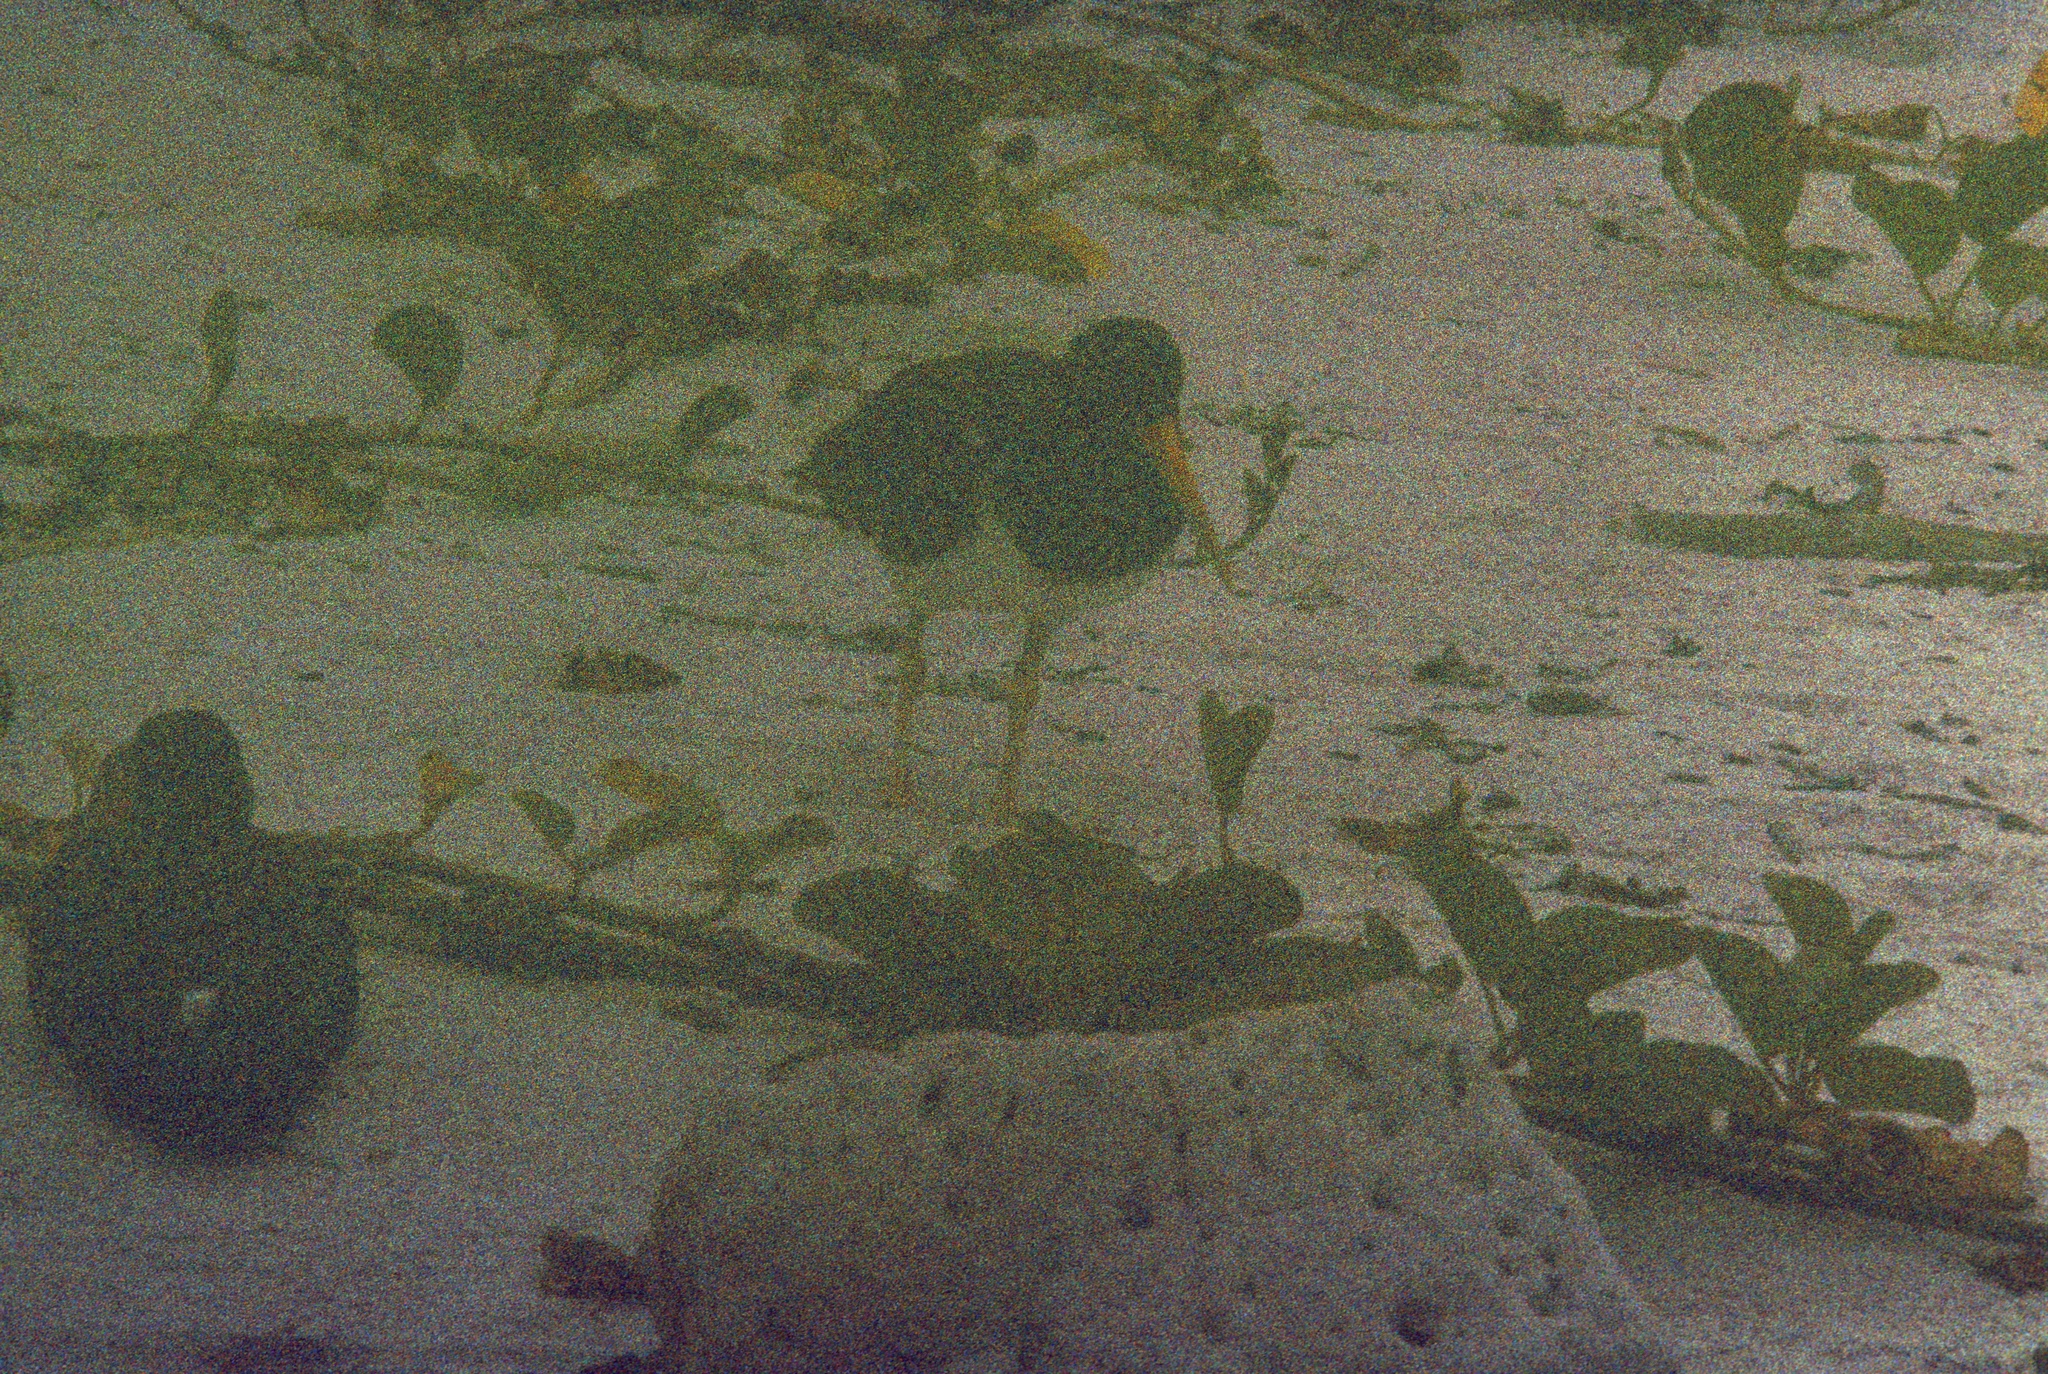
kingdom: Animalia
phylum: Chordata
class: Aves
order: Charadriiformes
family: Haematopodidae
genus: Haematopus
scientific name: Haematopus palliatus
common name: American oystercatcher
